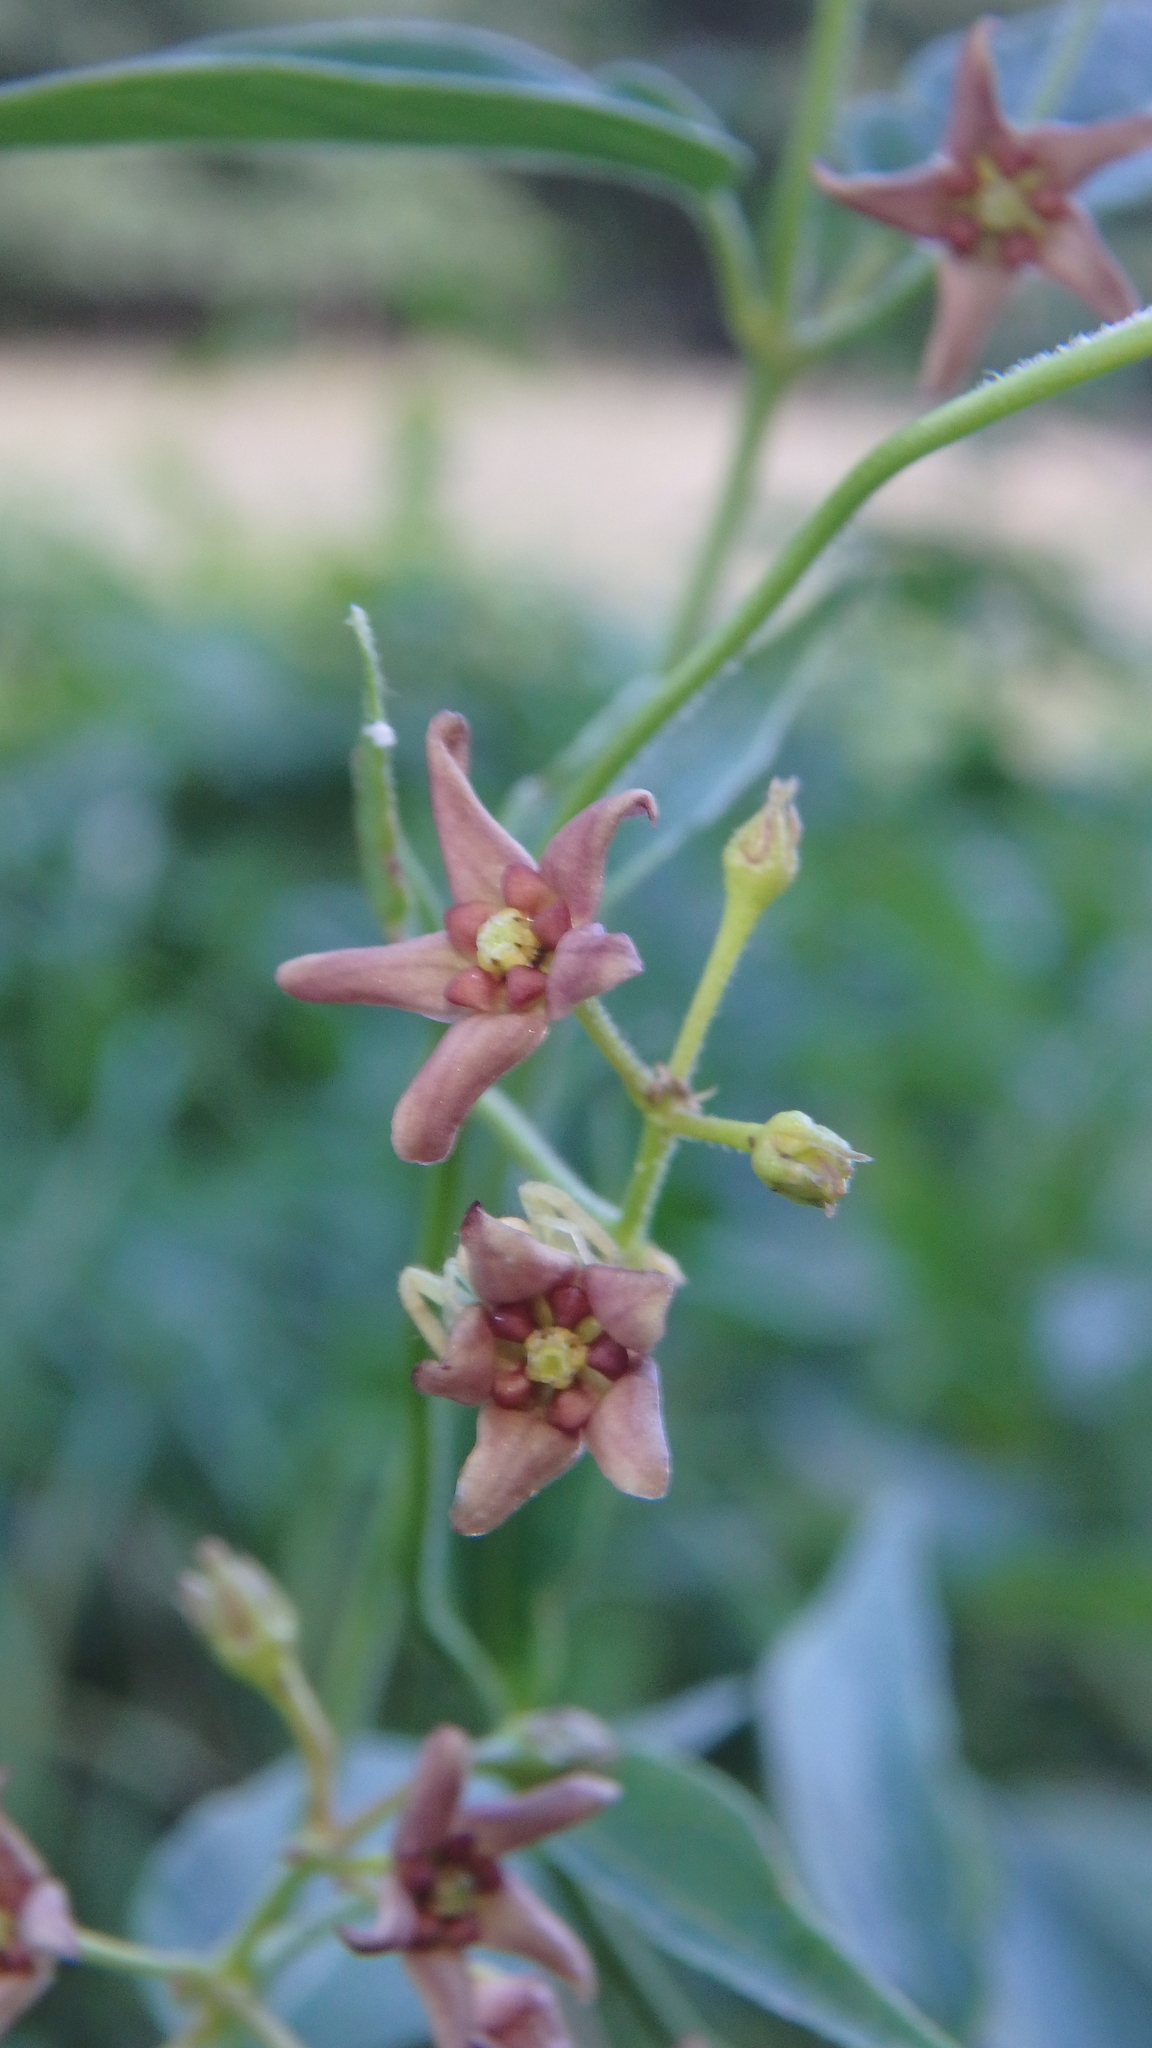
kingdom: Plantae
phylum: Tracheophyta
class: Magnoliopsida
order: Gentianales
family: Apocynaceae
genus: Vincetoxicum
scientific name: Vincetoxicum rossicum
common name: Dog-strangling vine
